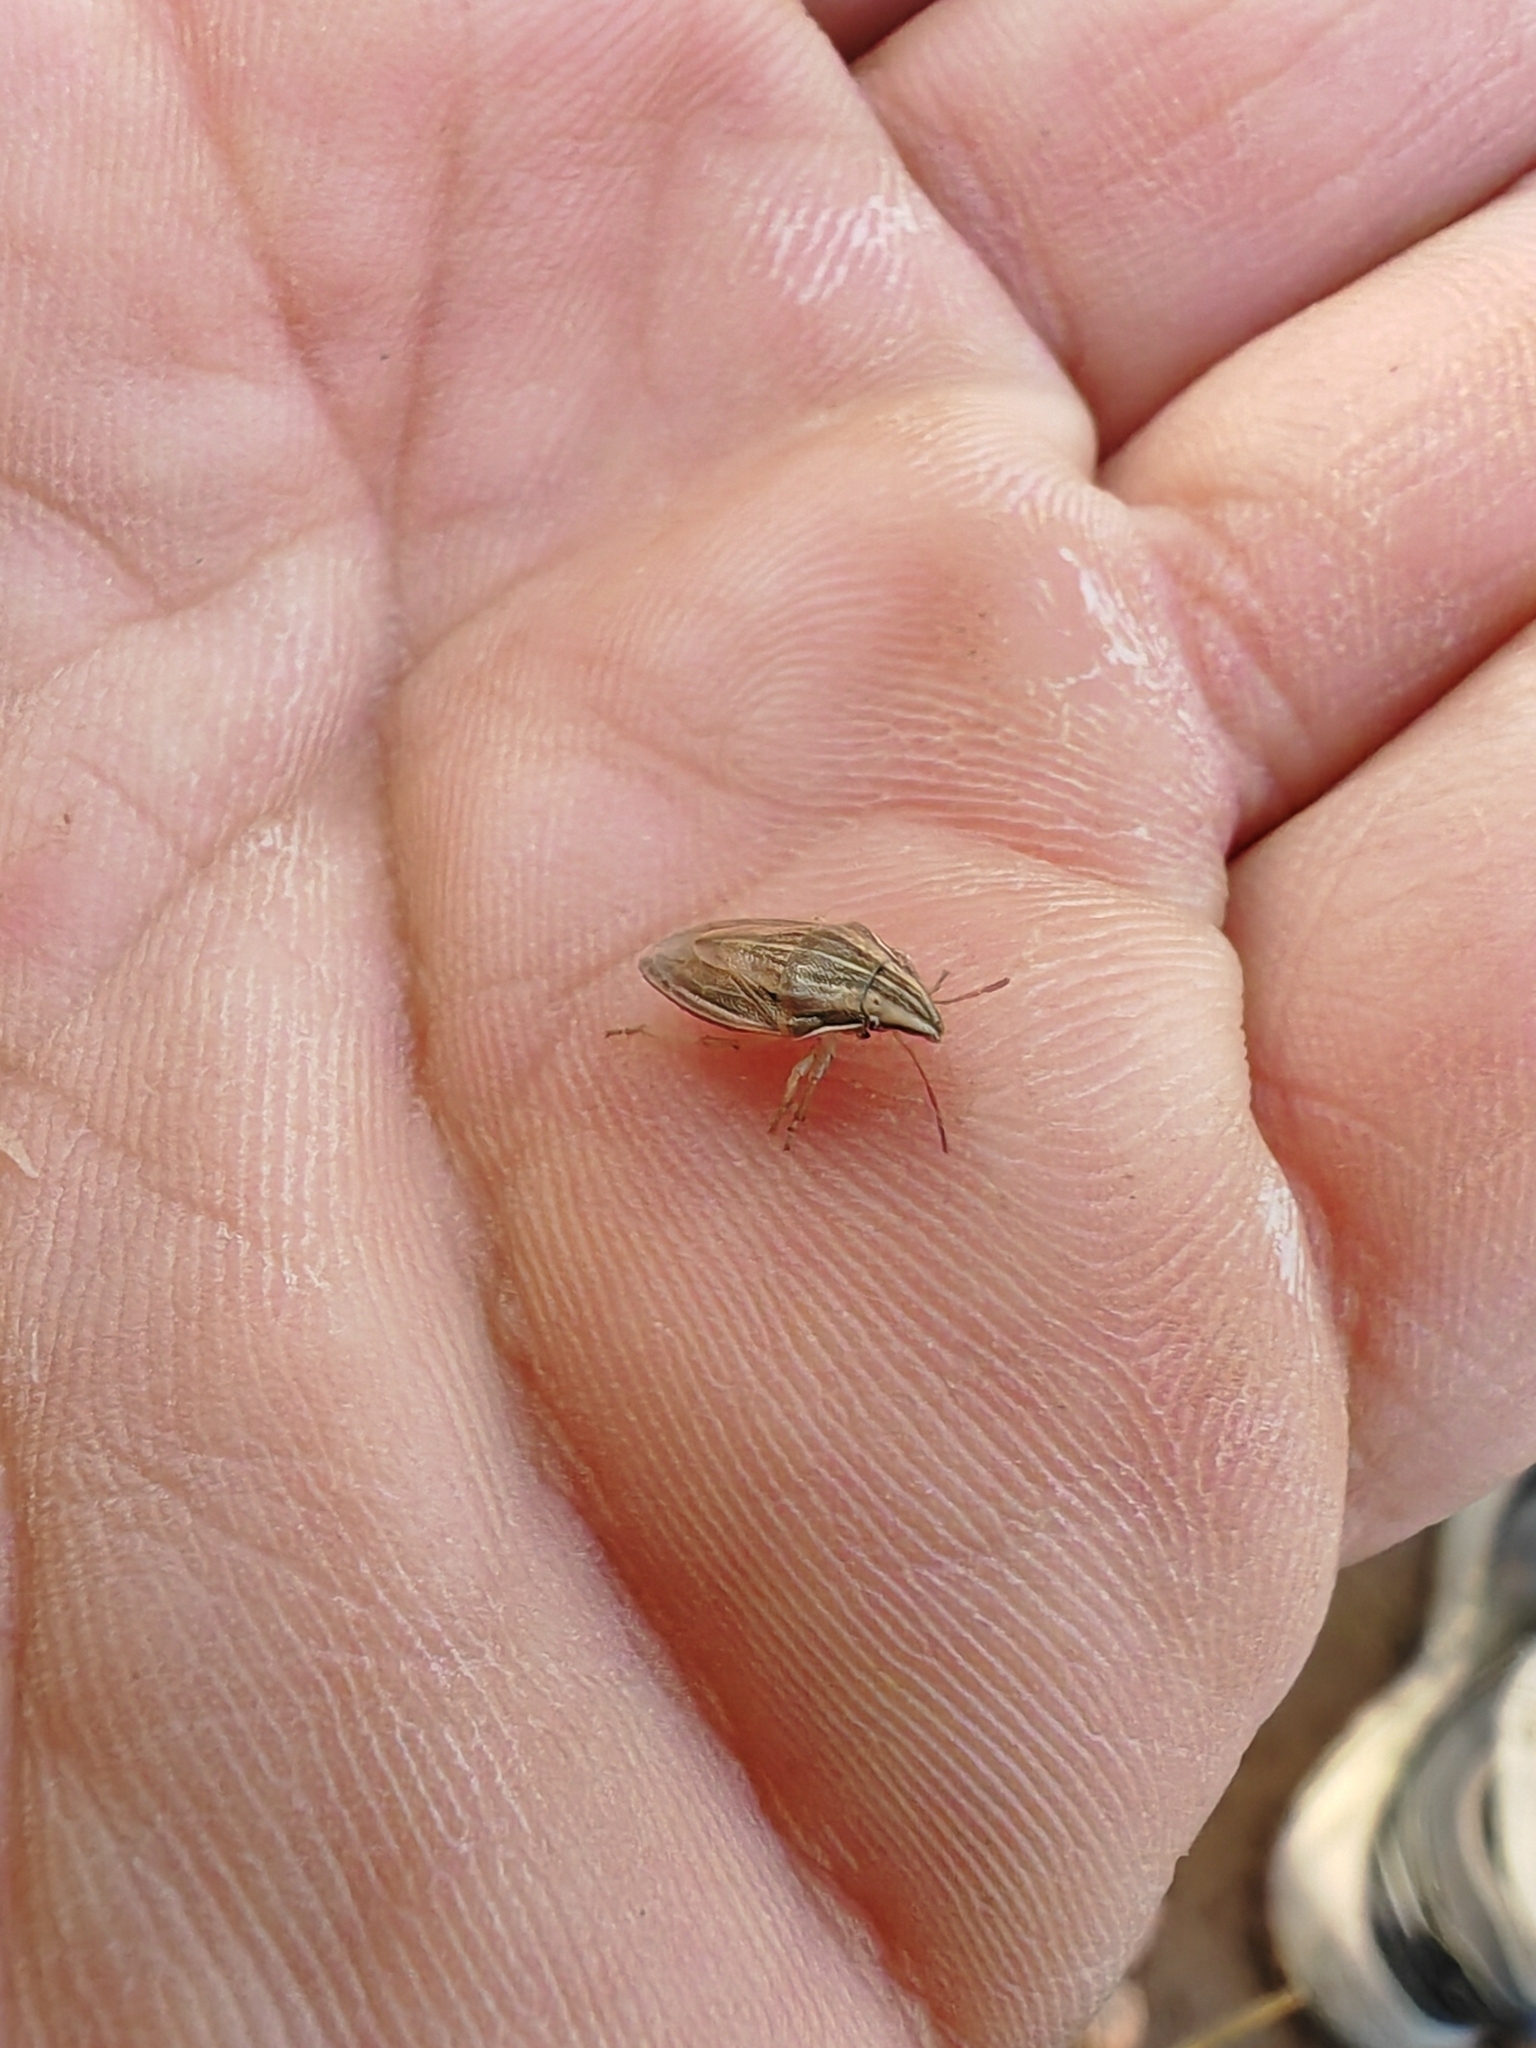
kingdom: Animalia
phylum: Arthropoda
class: Insecta
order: Hemiptera
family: Pentatomidae
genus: Aelia
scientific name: Aelia acuminata
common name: Bishop's mitre
